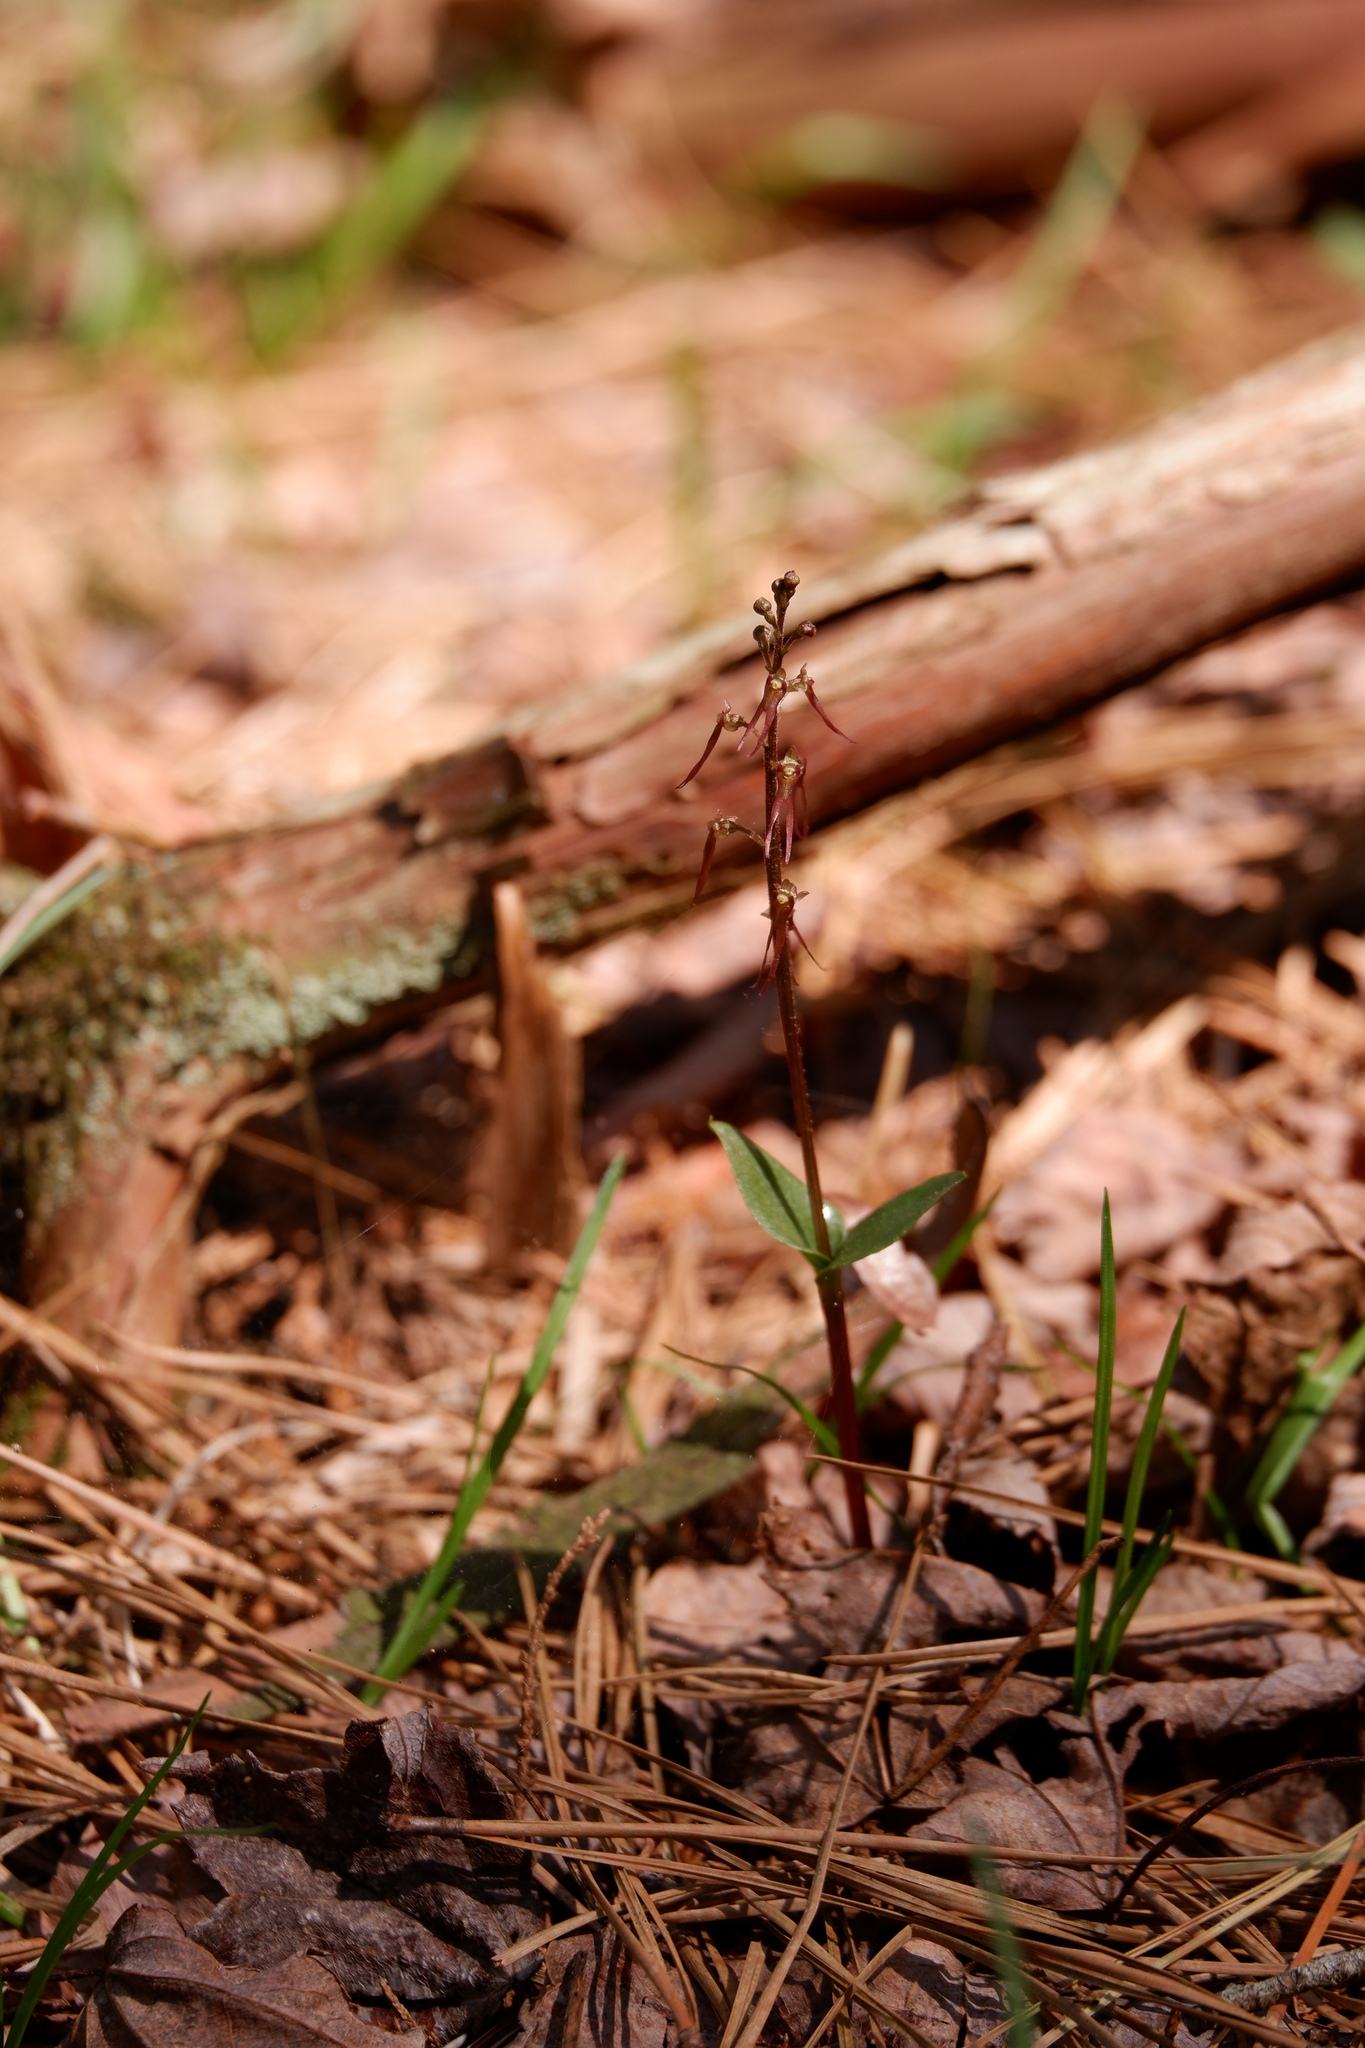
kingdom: Plantae
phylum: Tracheophyta
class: Liliopsida
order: Asparagales
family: Orchidaceae
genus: Neottia
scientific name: Neottia bifolia
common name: Southern twayblade
